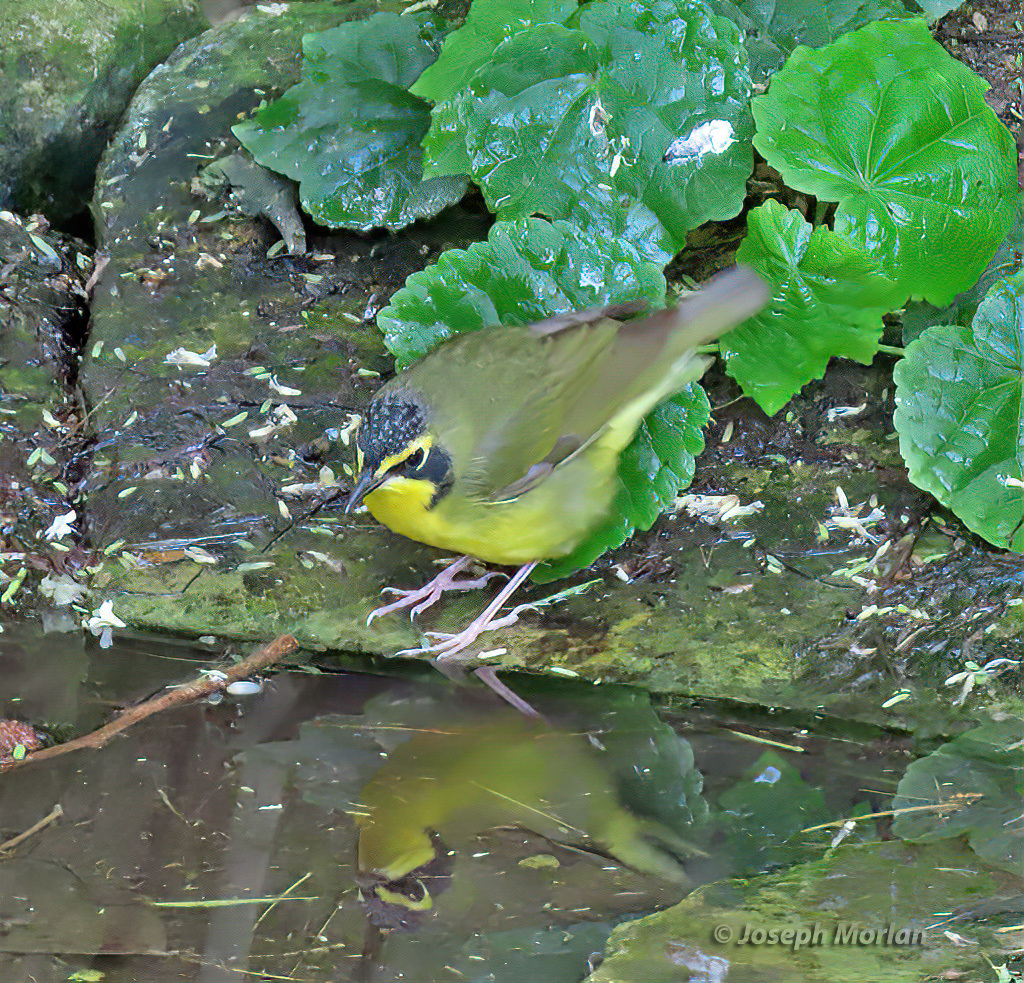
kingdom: Animalia
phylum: Chordata
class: Aves
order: Passeriformes
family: Parulidae
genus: Geothlypis
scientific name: Geothlypis formosa
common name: Kentucky warbler
